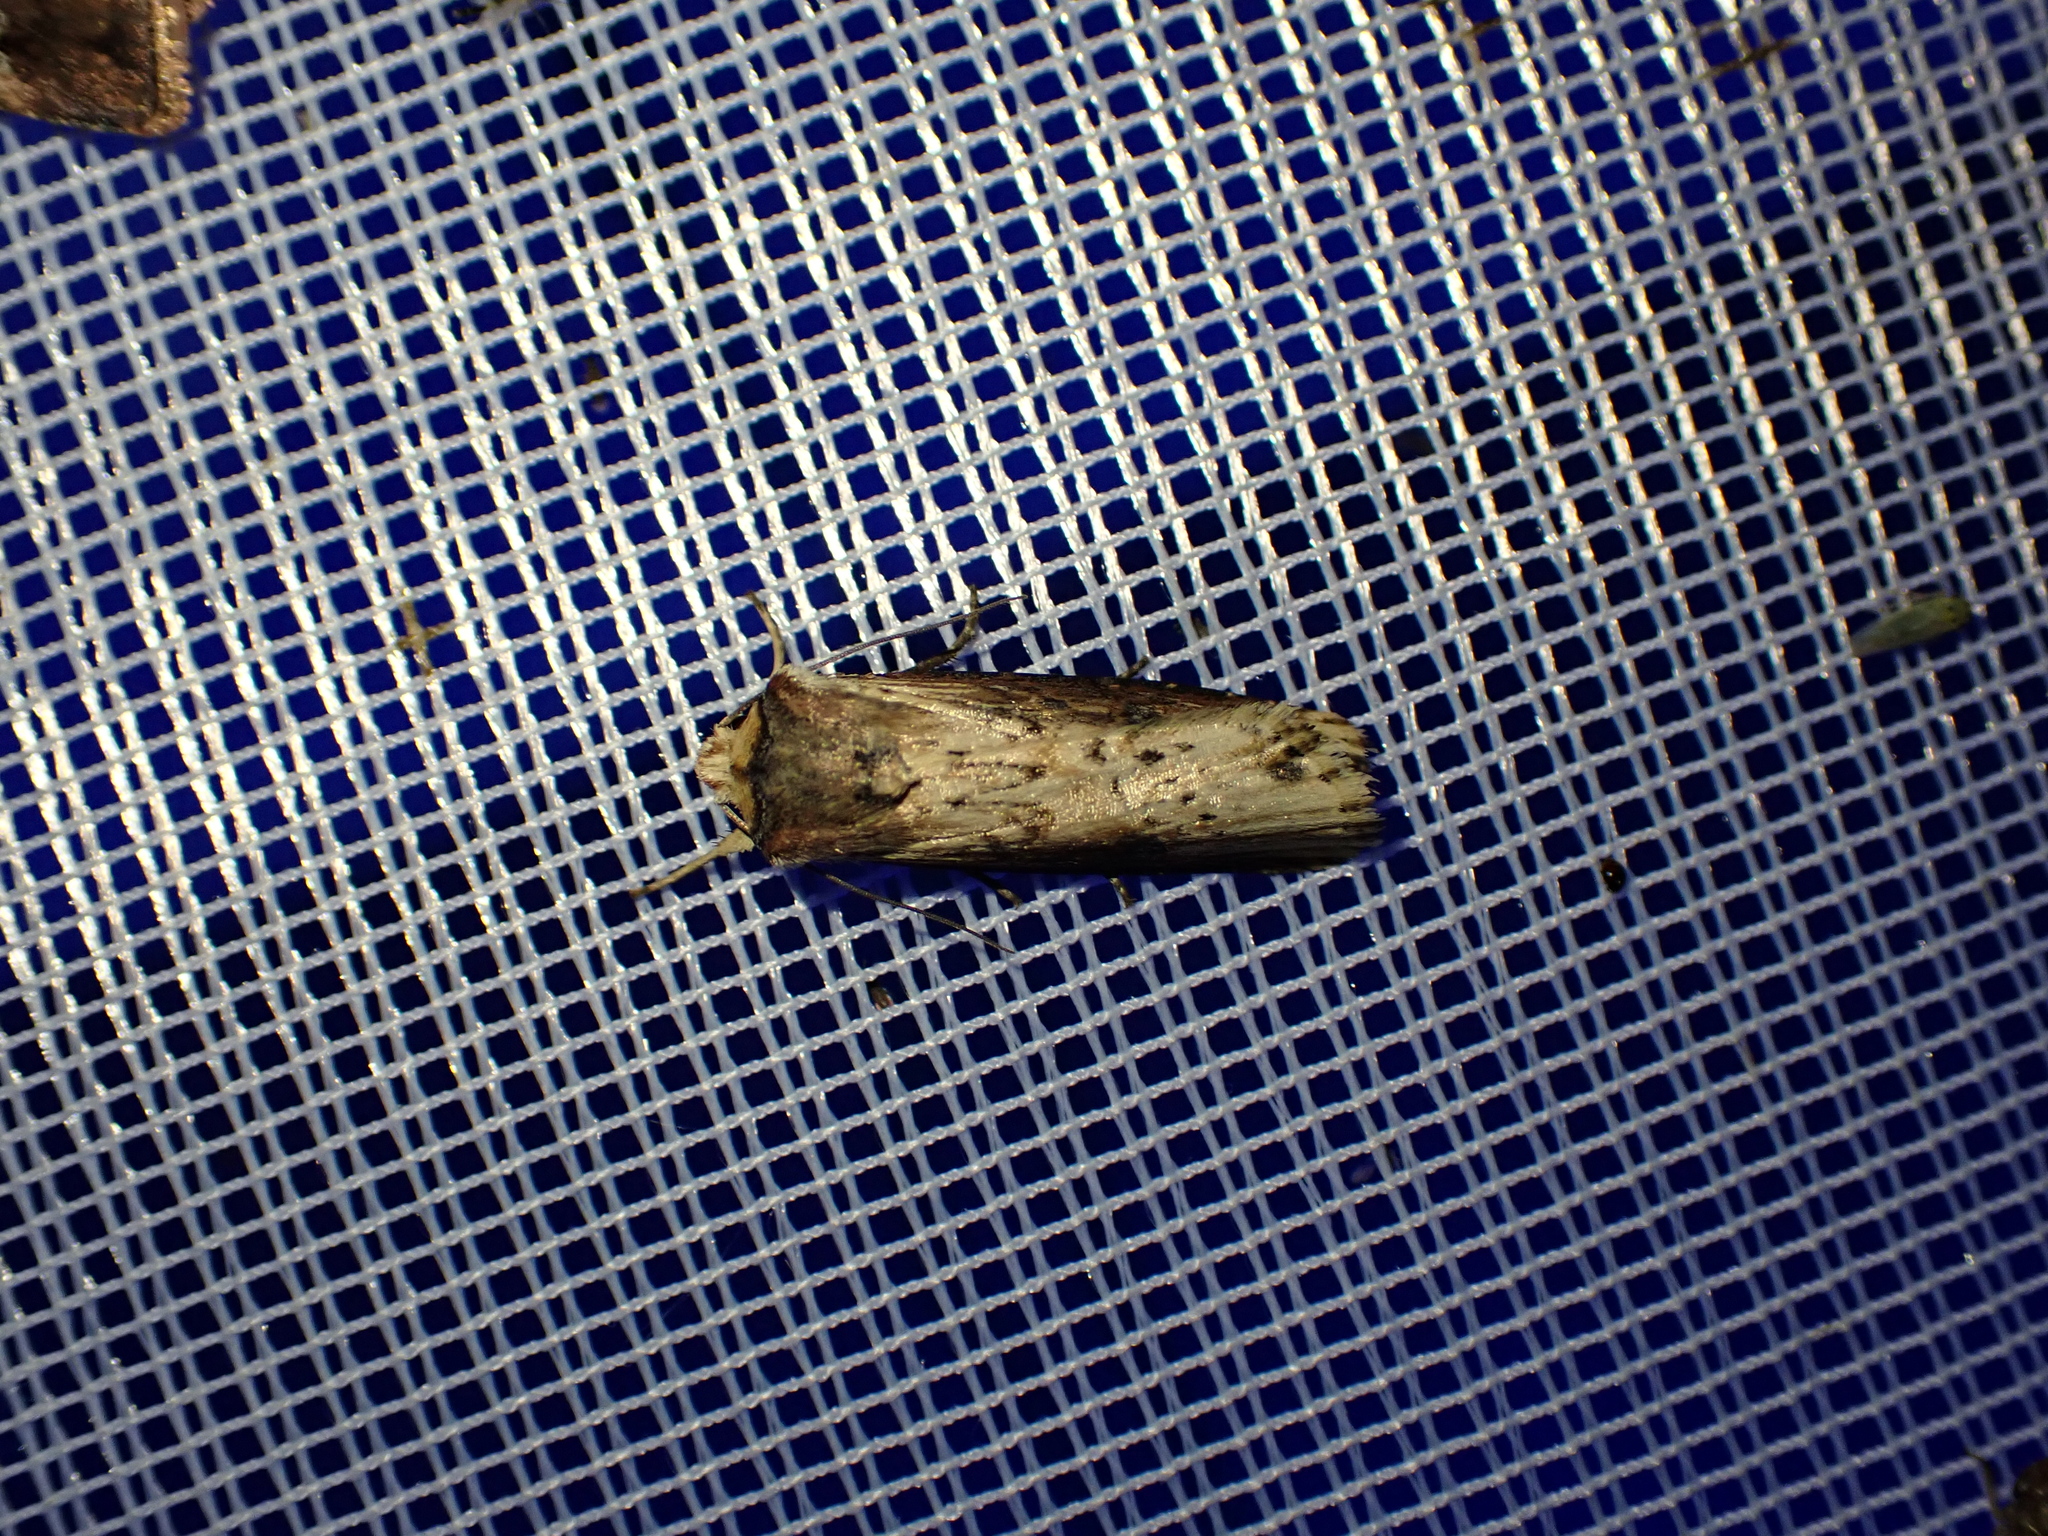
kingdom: Animalia
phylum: Arthropoda
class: Insecta
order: Lepidoptera
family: Noctuidae
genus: Axylia
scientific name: Axylia putris
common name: Flame
